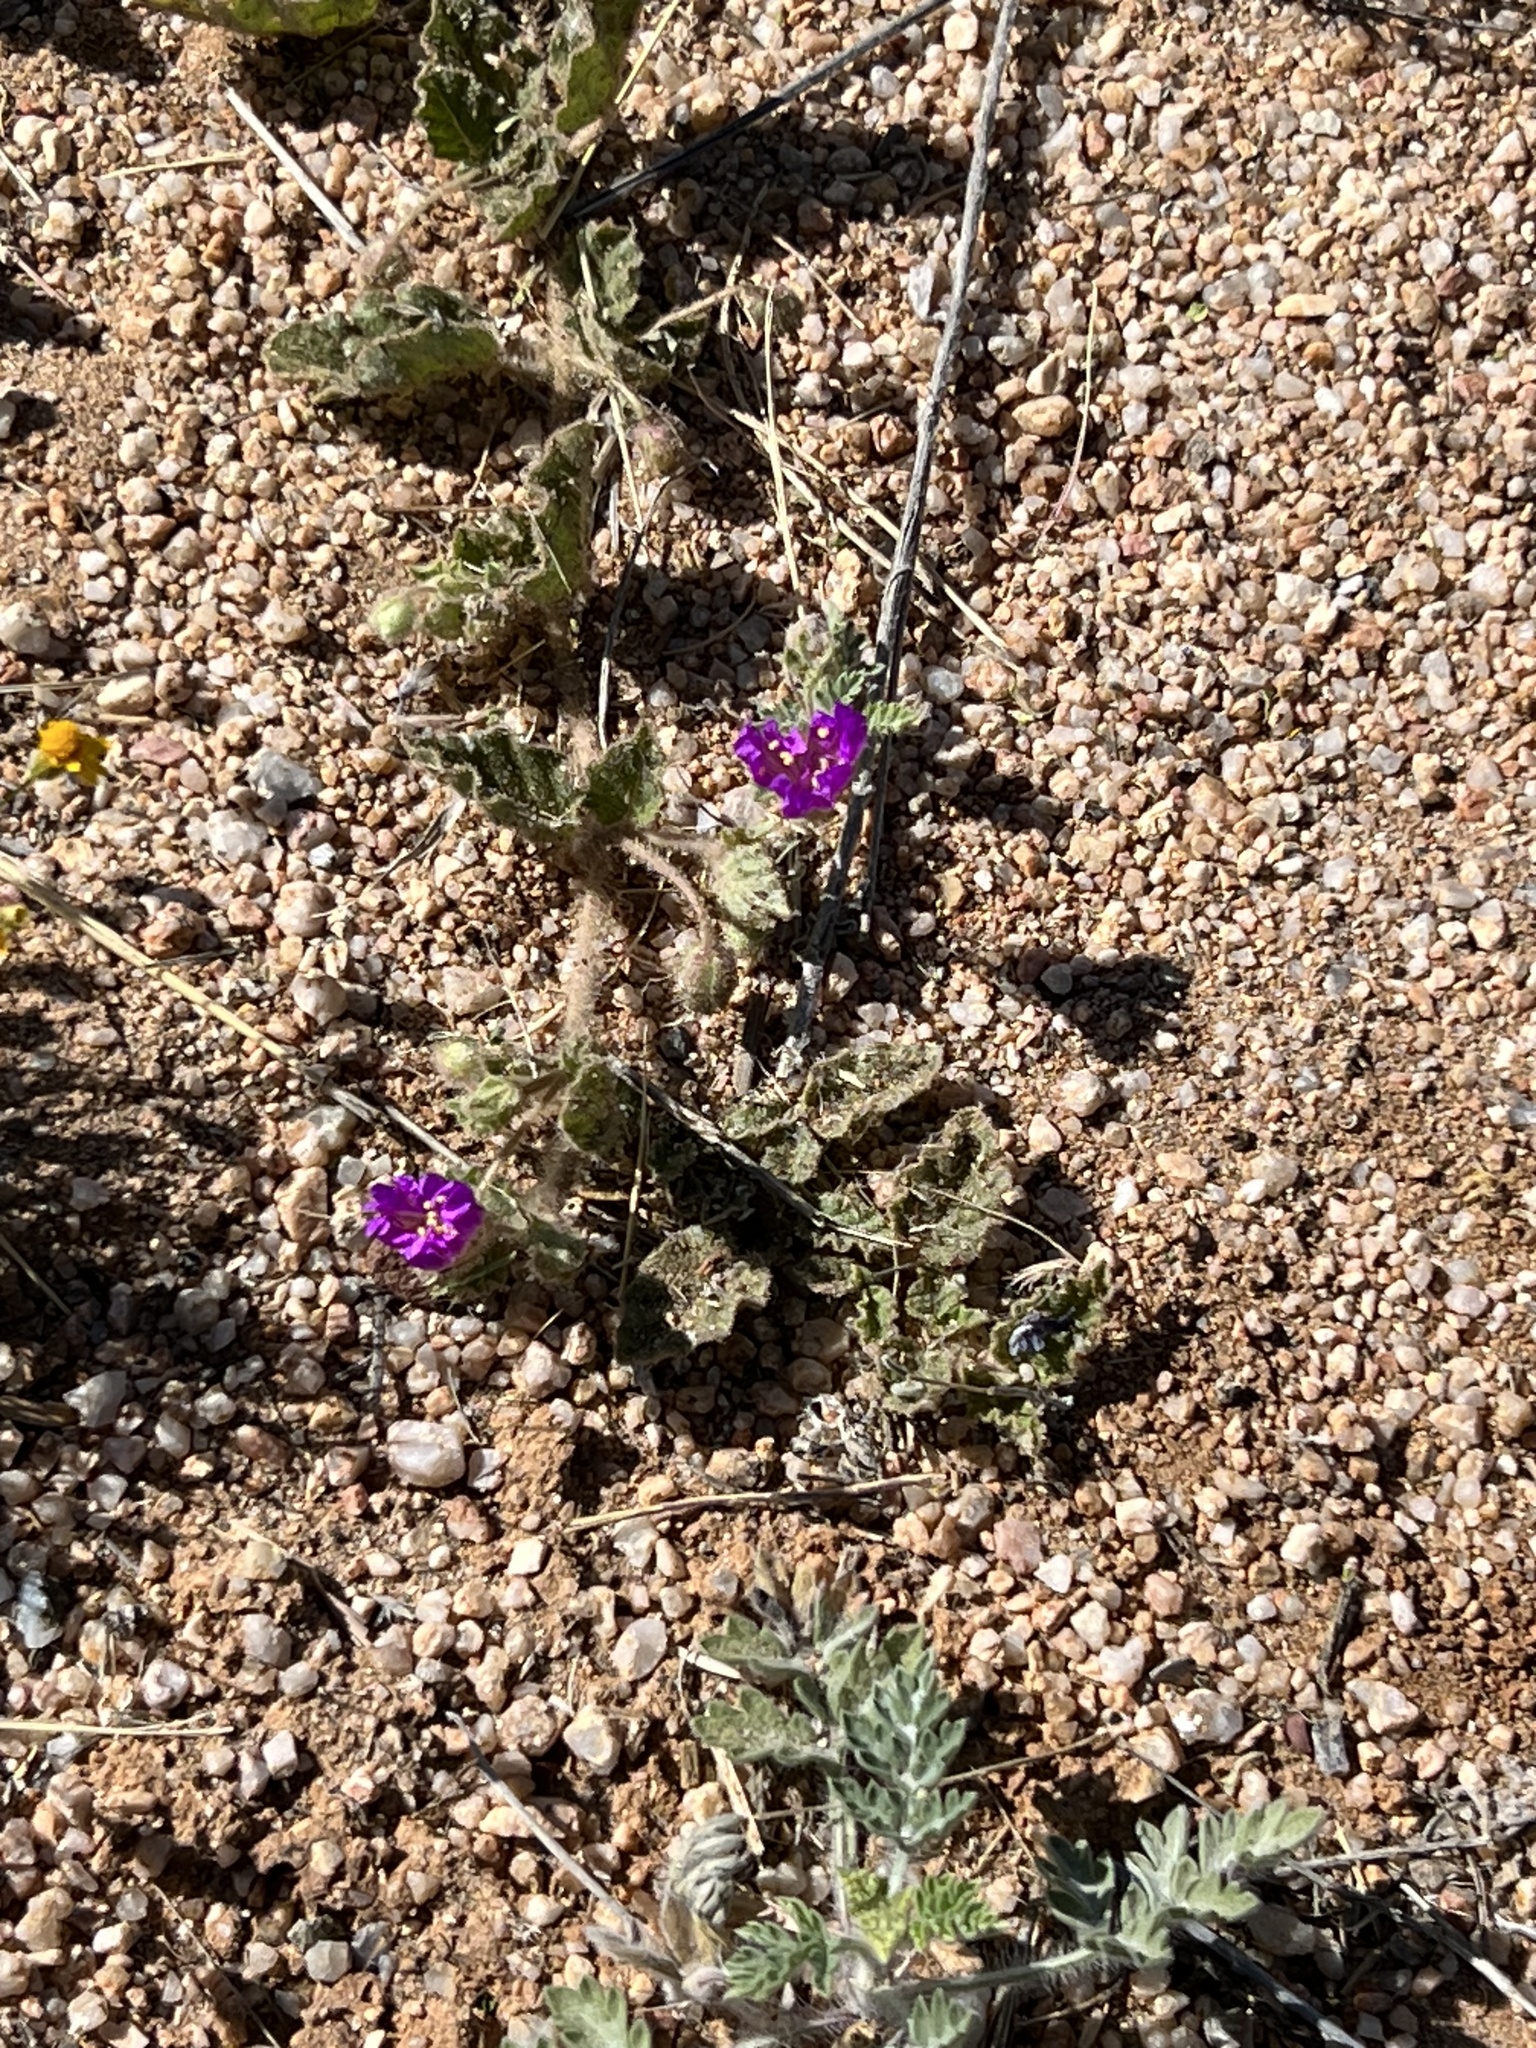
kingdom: Plantae
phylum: Tracheophyta
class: Magnoliopsida
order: Caryophyllales
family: Nyctaginaceae
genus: Allionia
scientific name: Allionia incarnata
